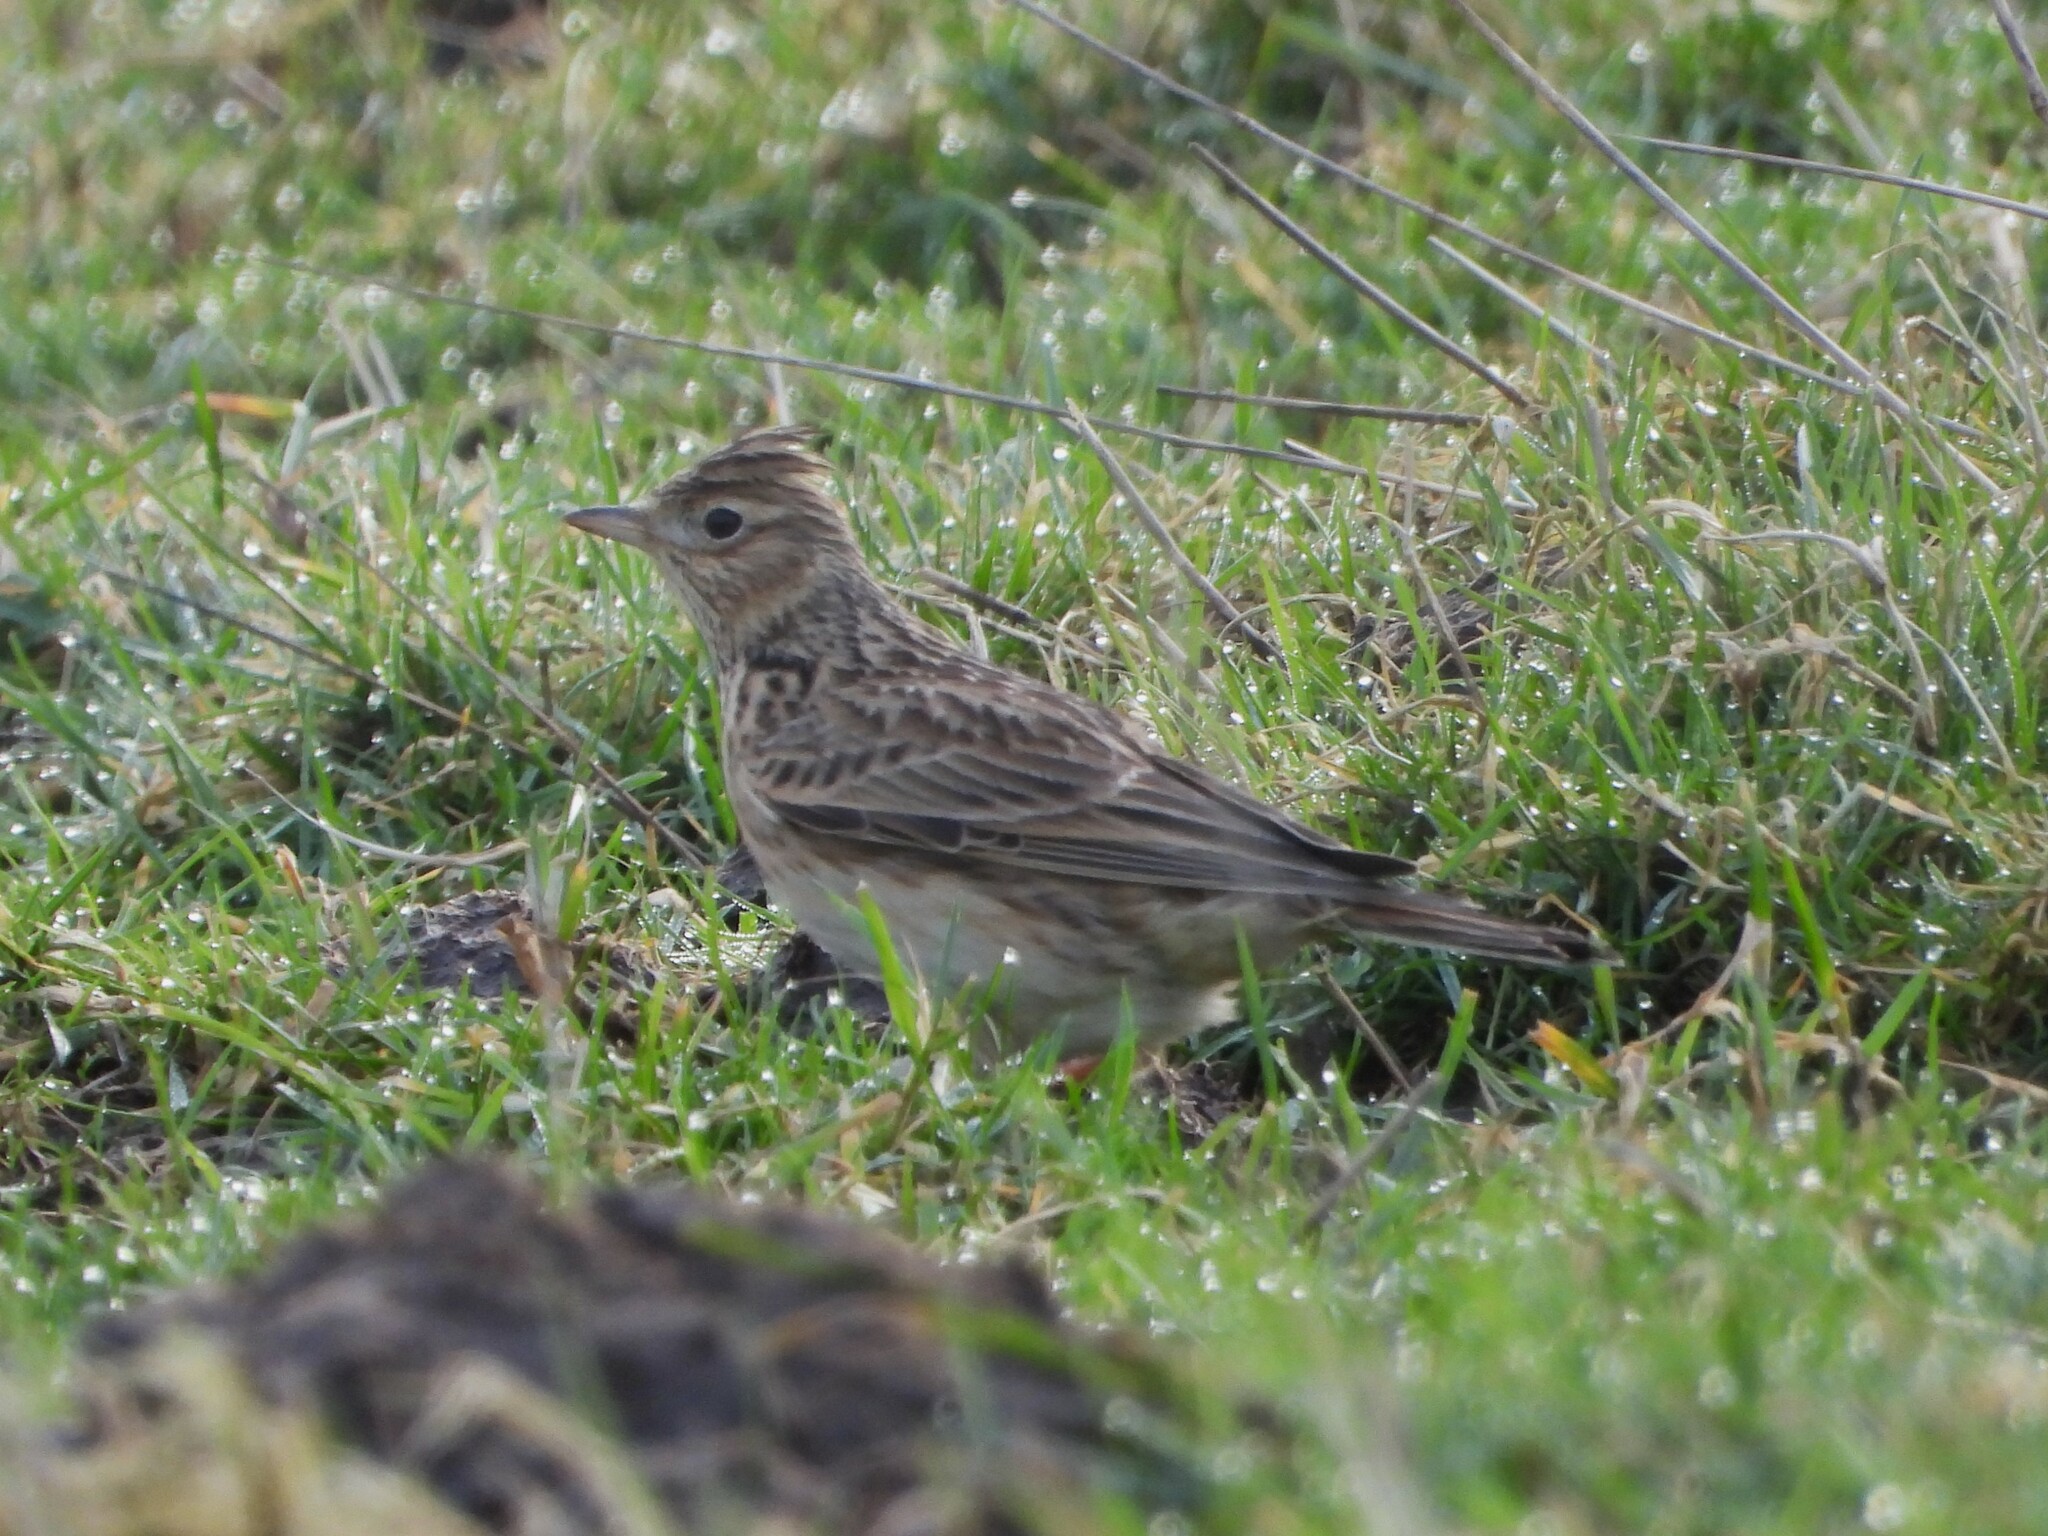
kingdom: Animalia
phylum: Chordata
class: Aves
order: Passeriformes
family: Alaudidae
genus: Alauda
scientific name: Alauda arvensis
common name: Eurasian skylark
